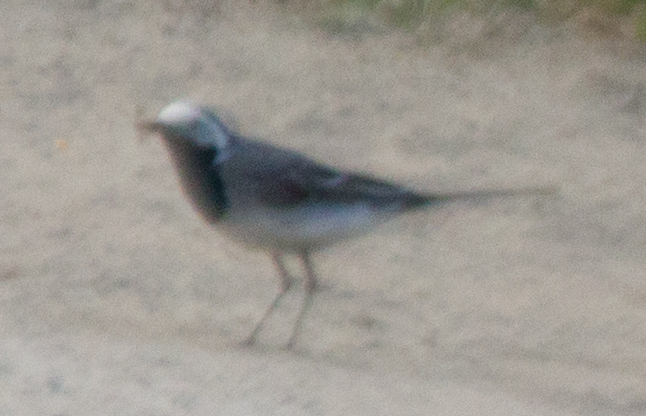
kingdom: Animalia
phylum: Chordata
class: Aves
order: Passeriformes
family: Motacillidae
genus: Motacilla
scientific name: Motacilla alba
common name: White wagtail
